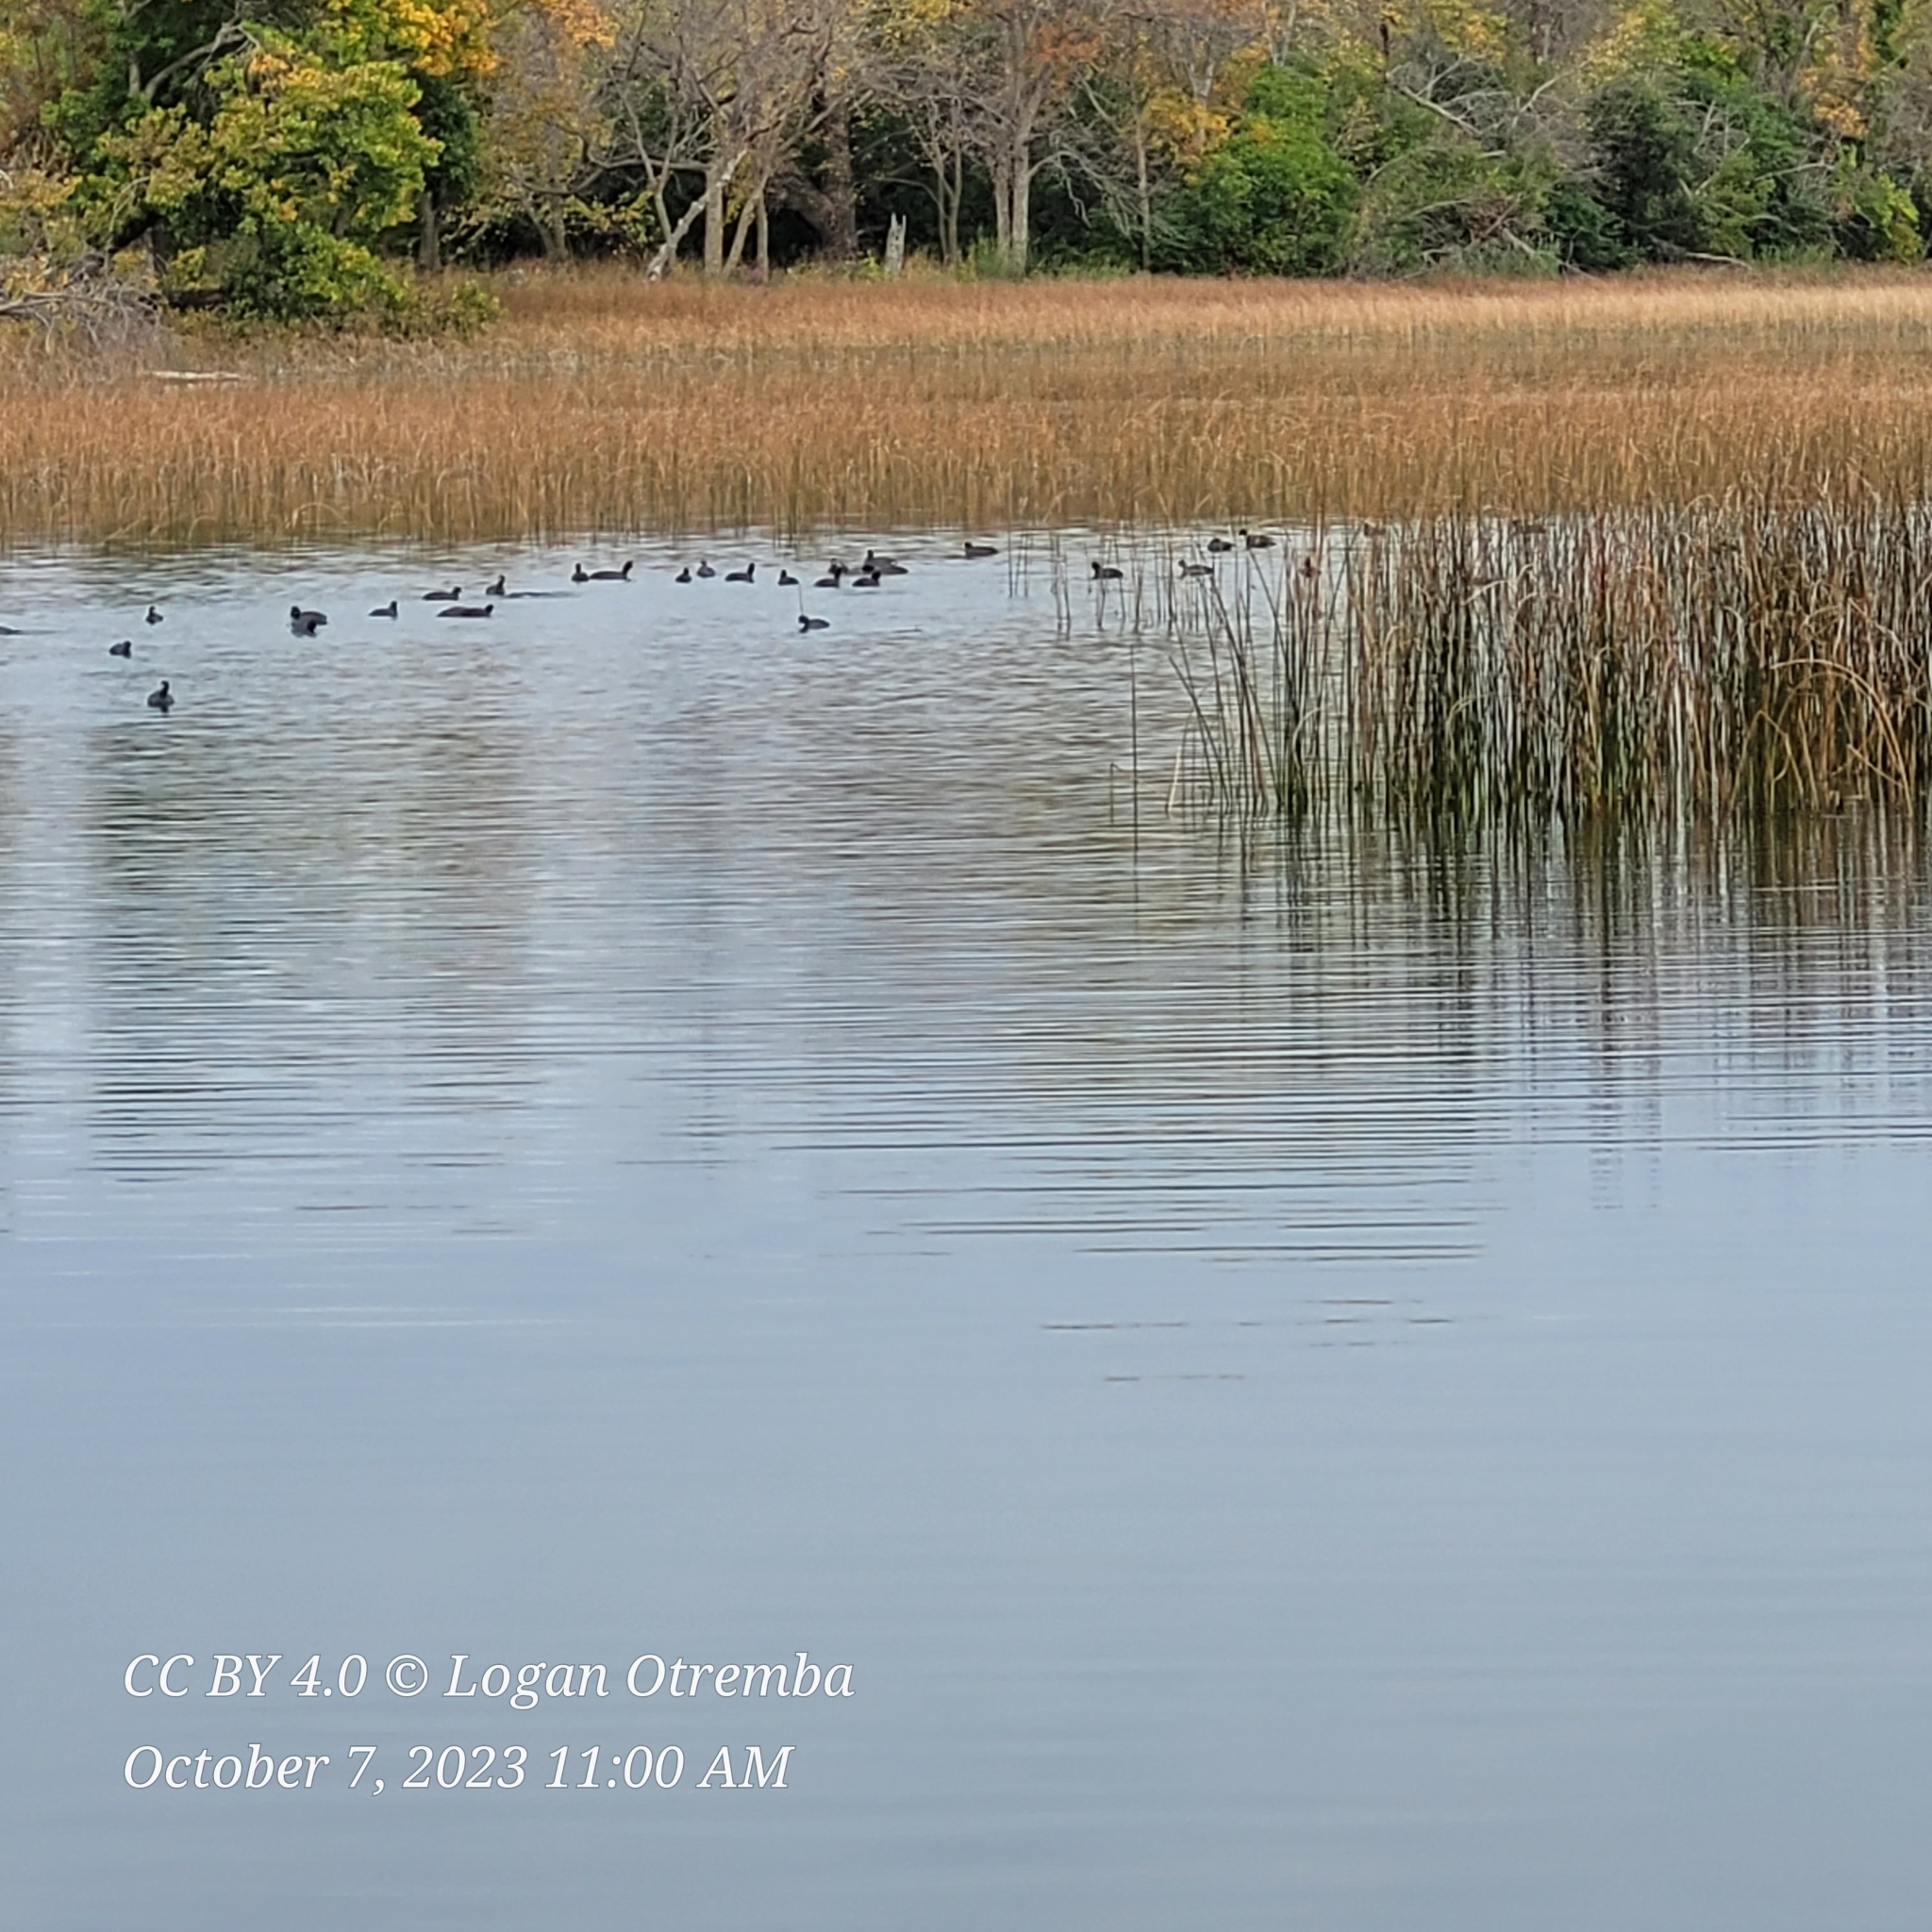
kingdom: Animalia
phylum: Chordata
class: Aves
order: Gruiformes
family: Rallidae
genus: Fulica
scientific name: Fulica americana
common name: American coot
